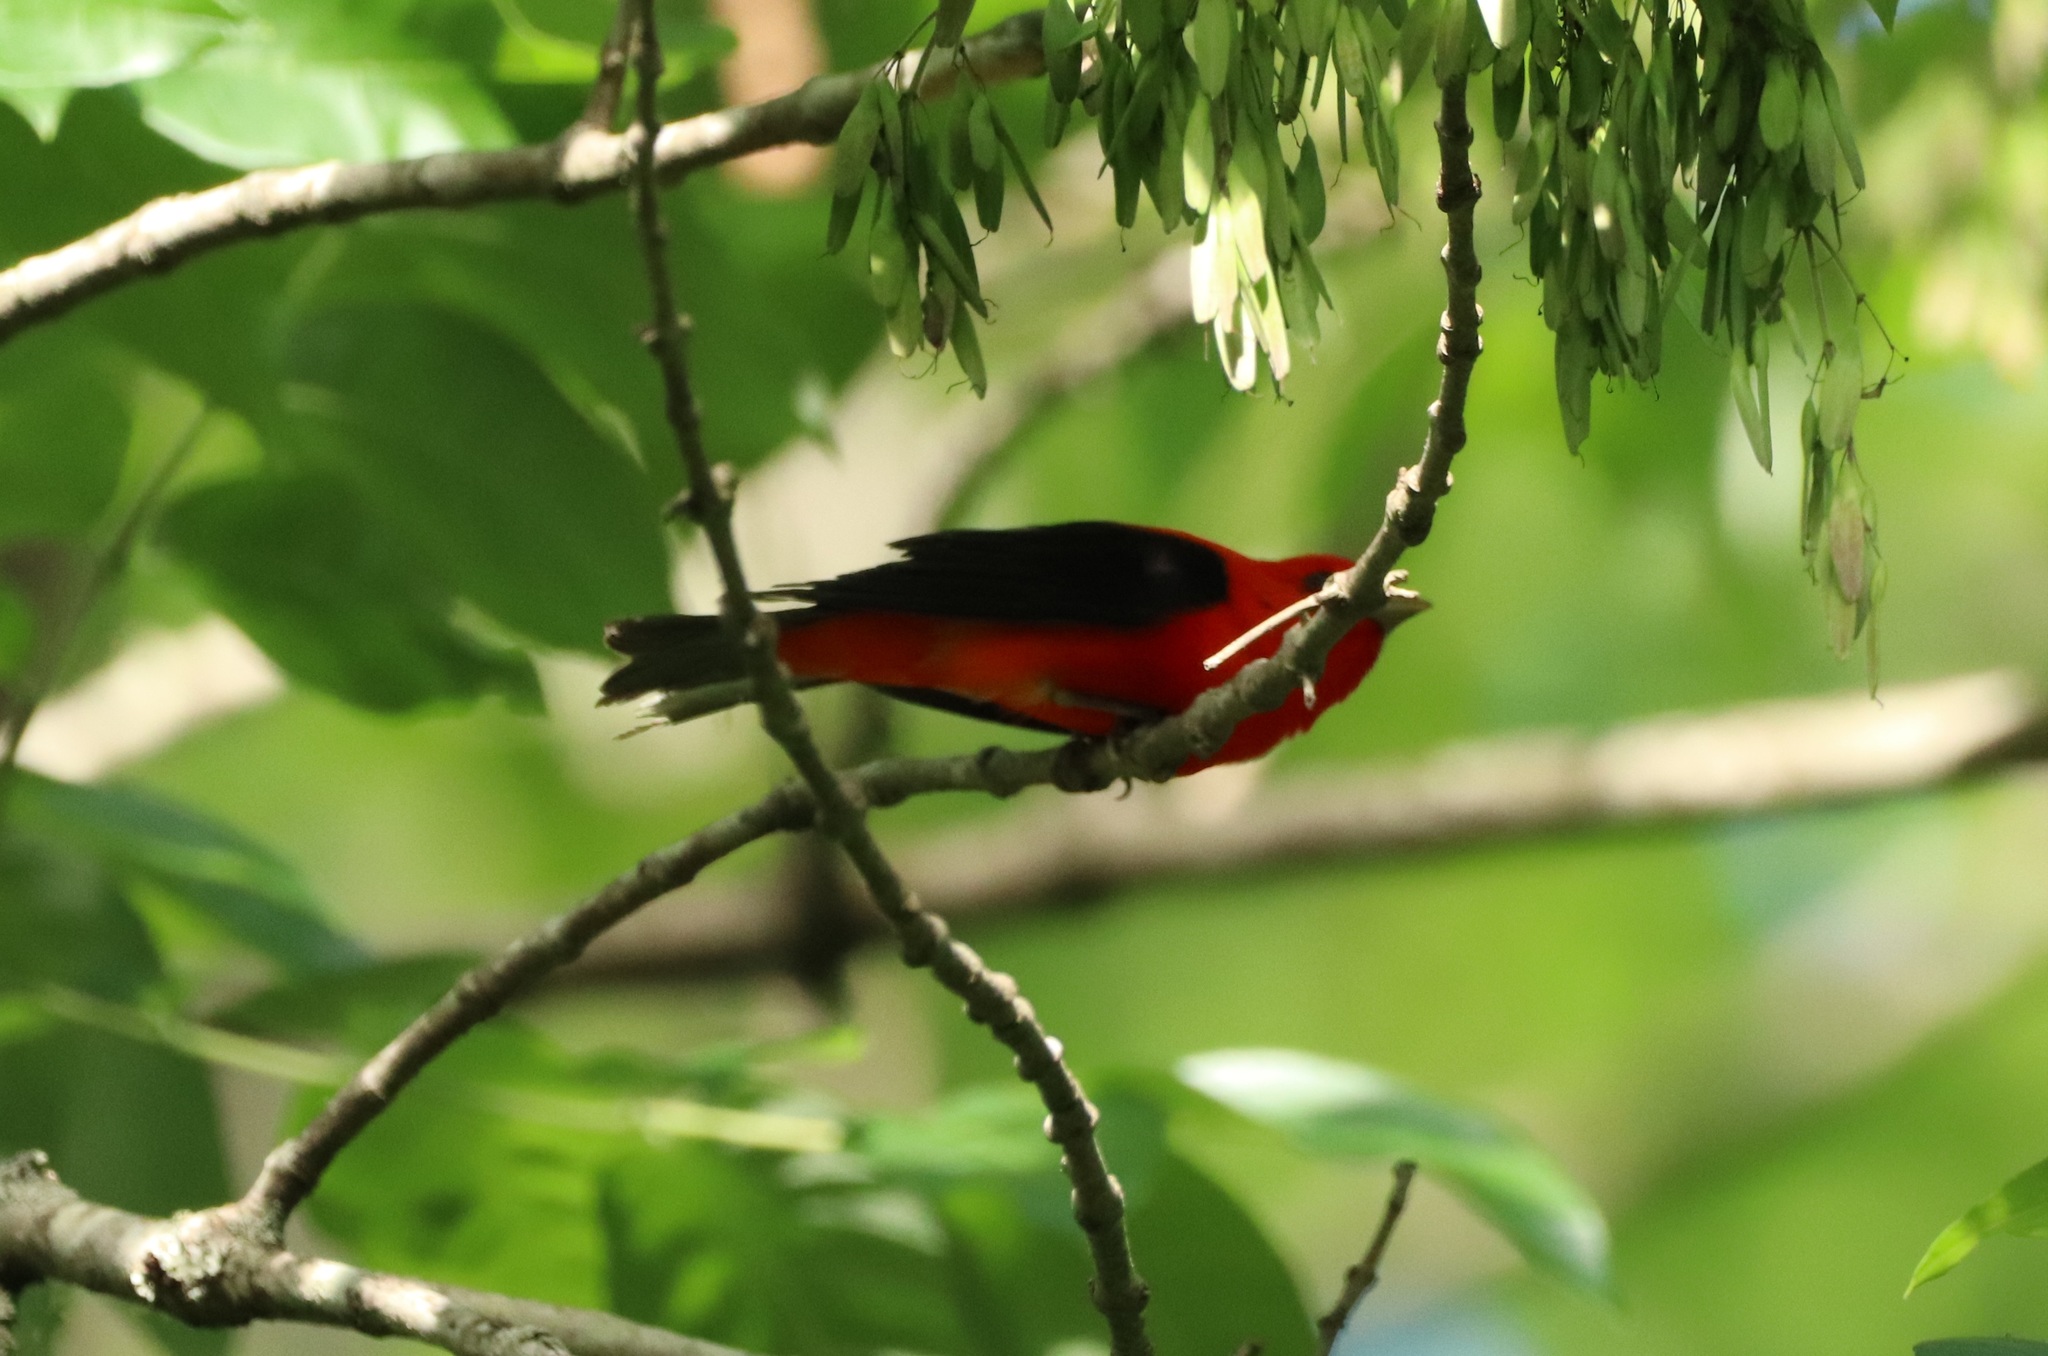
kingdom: Animalia
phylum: Chordata
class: Aves
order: Passeriformes
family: Cardinalidae
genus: Piranga
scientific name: Piranga olivacea
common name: Scarlet tanager
